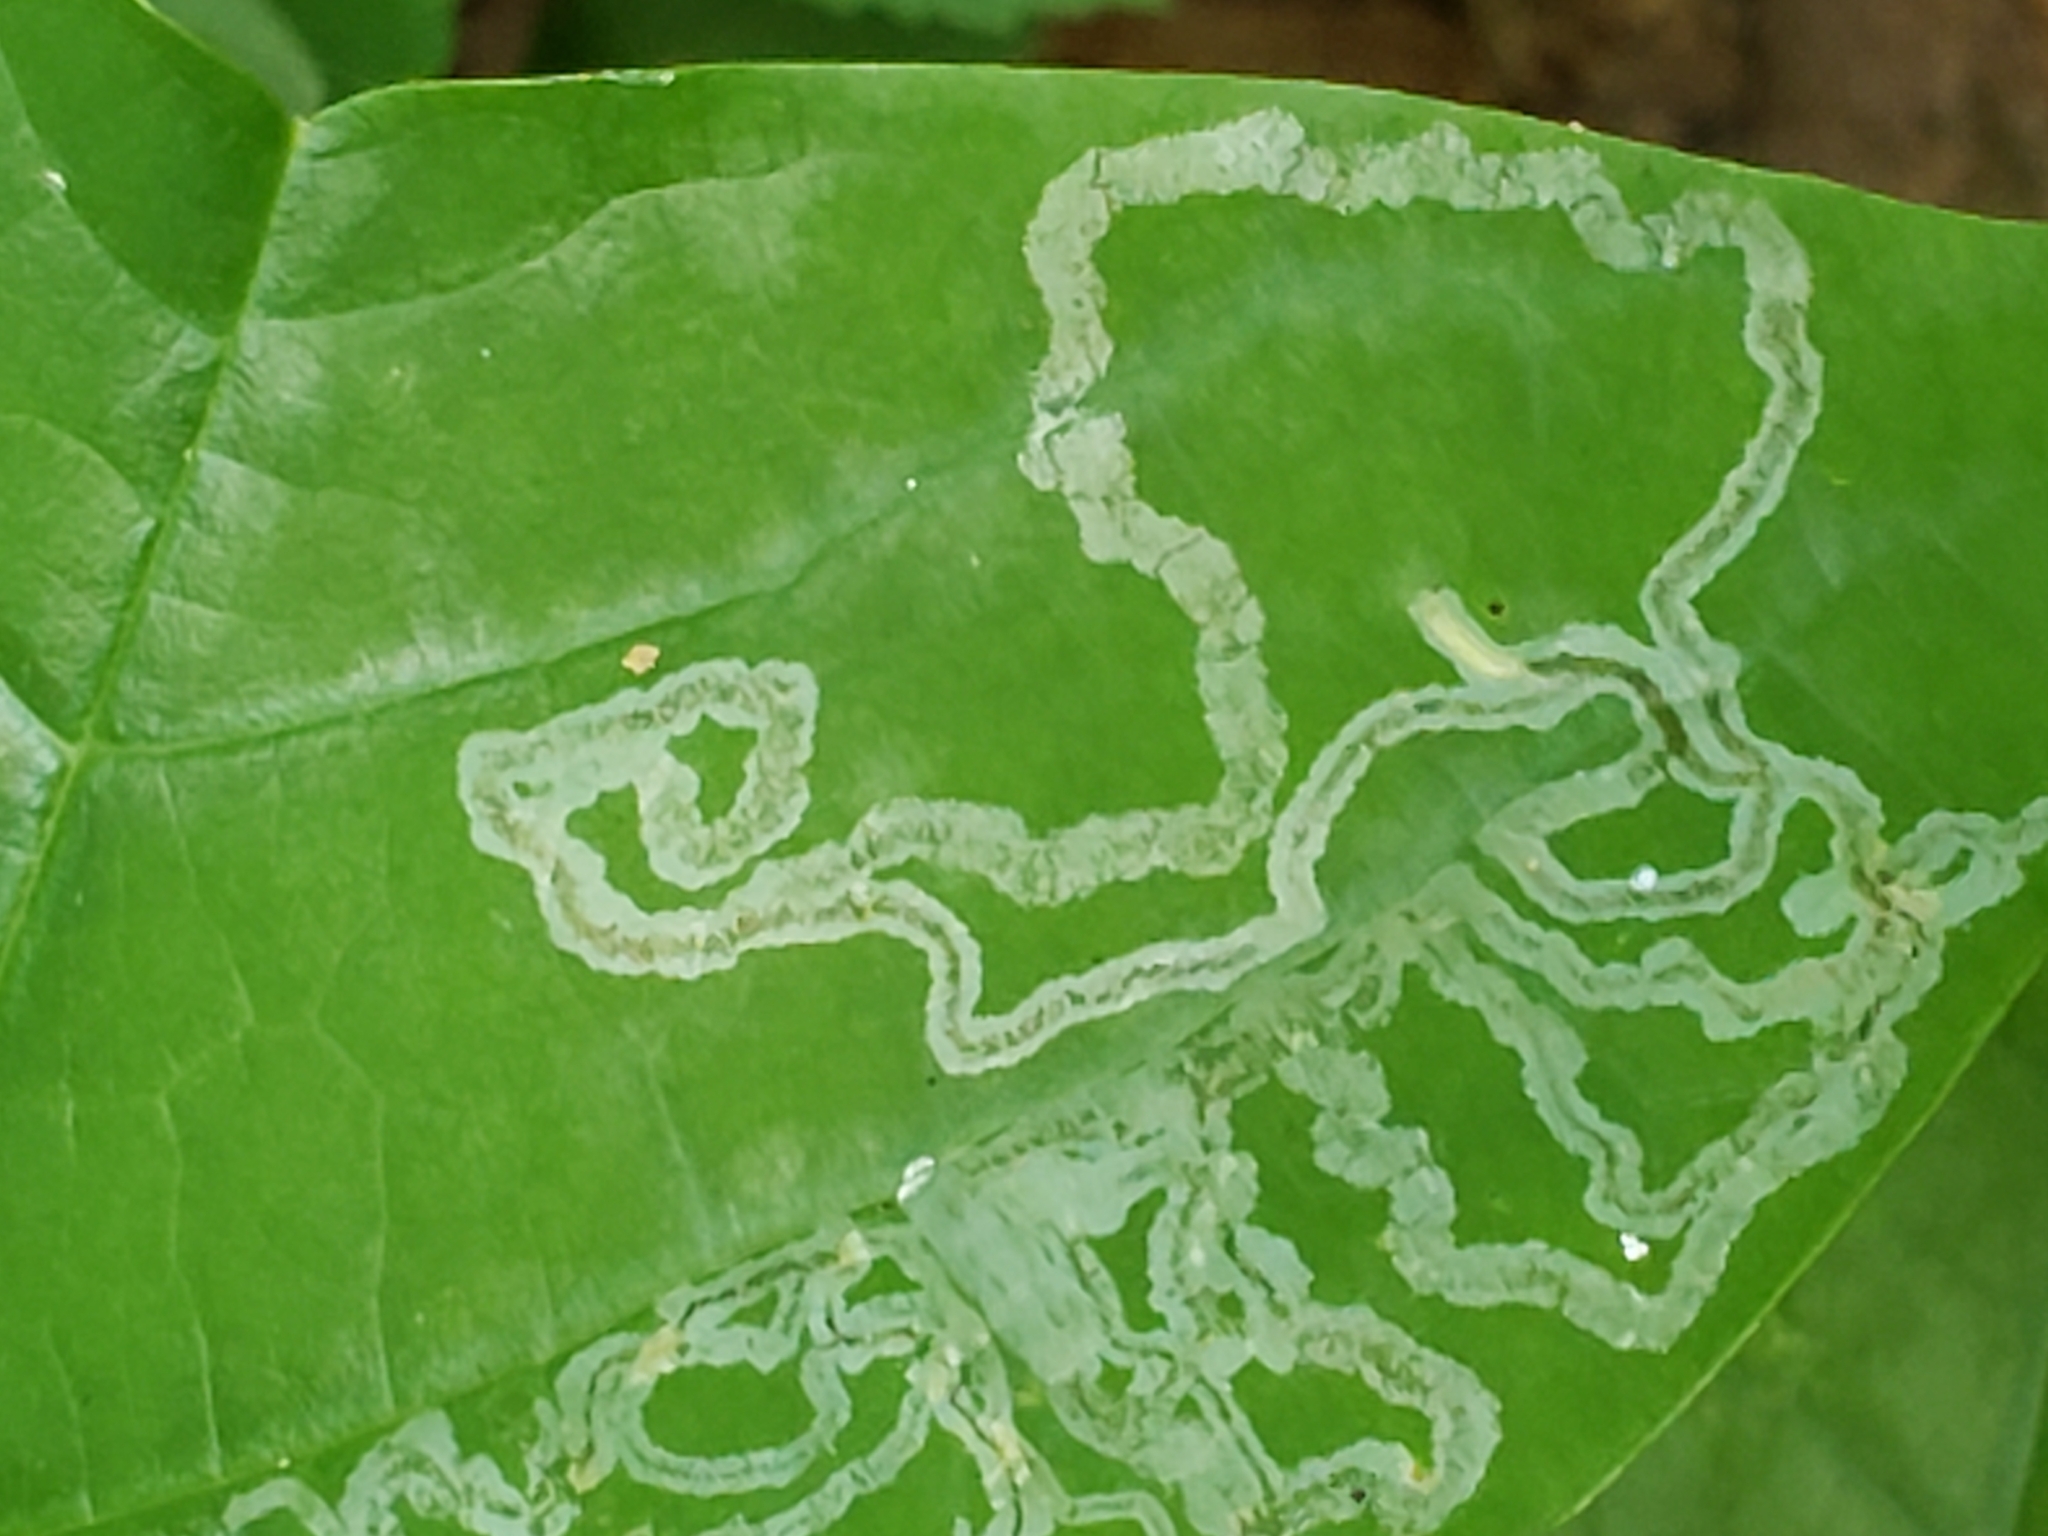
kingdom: Animalia
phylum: Arthropoda
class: Insecta
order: Lepidoptera
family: Gracillariidae
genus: Phyllocnistis
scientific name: Phyllocnistis liriodendronella
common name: Tulip tree leaf miner
